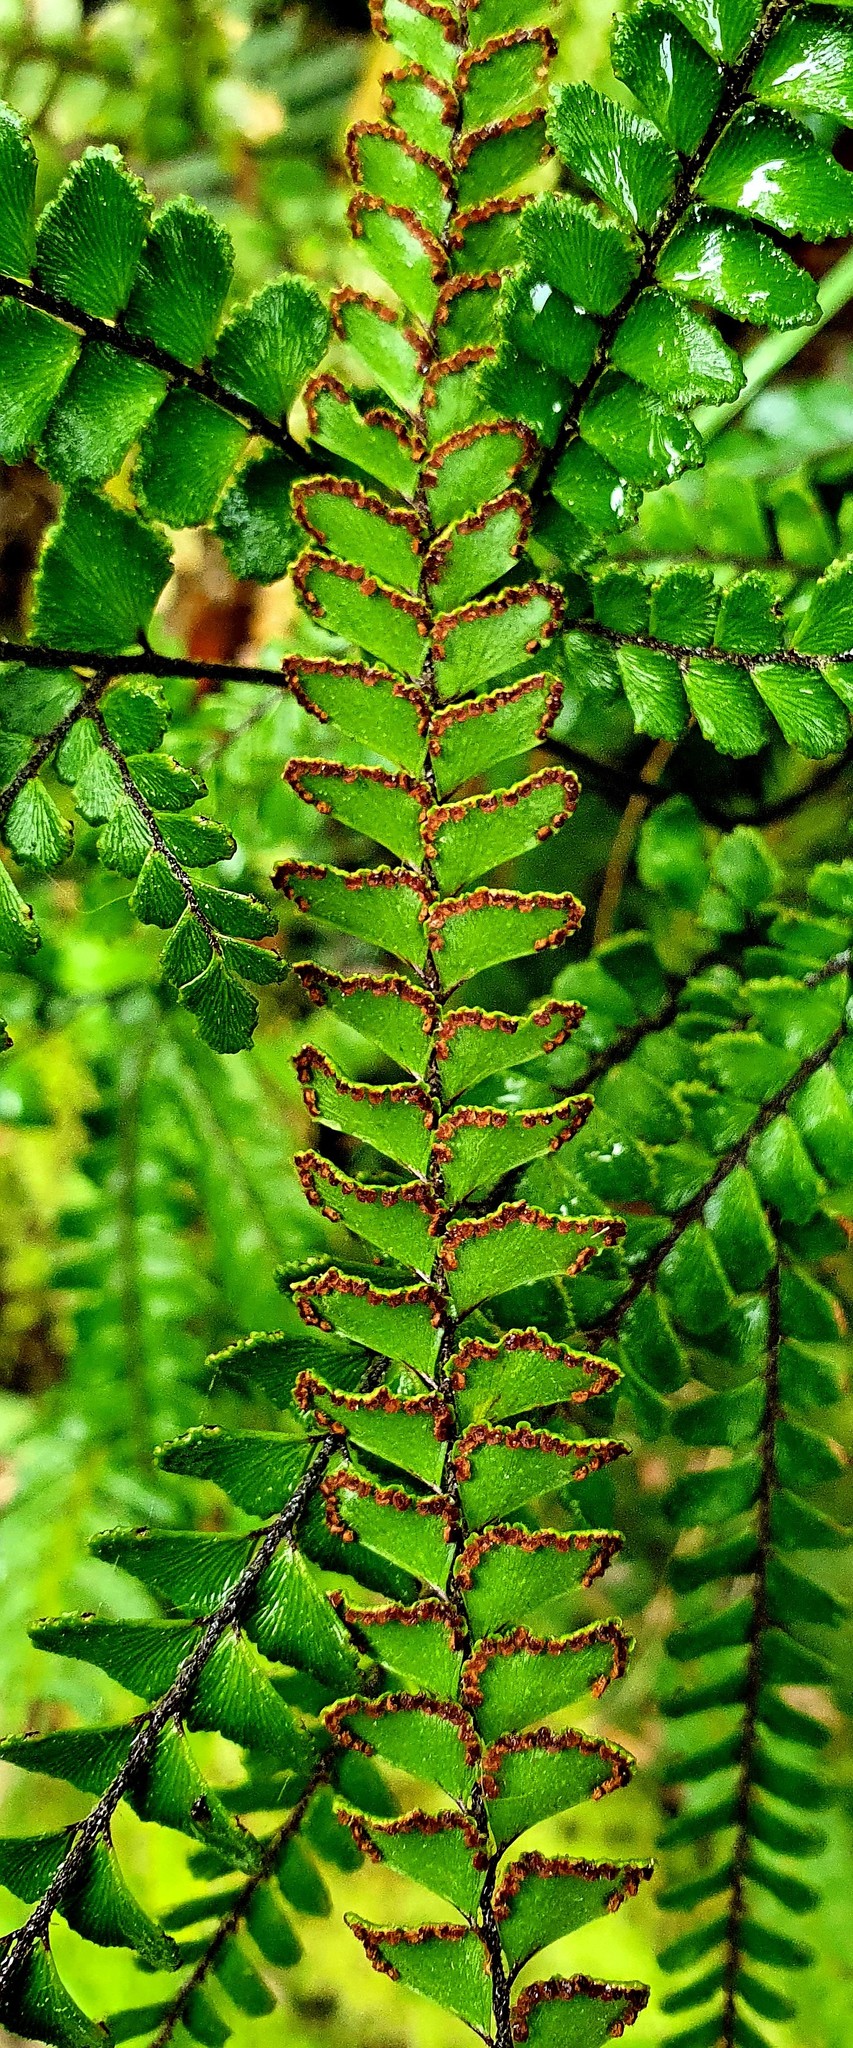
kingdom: Plantae
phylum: Tracheophyta
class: Polypodiopsida
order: Polypodiales
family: Pteridaceae
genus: Adiantum
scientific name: Adiantum hispidulum
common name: Rough maidenhair
